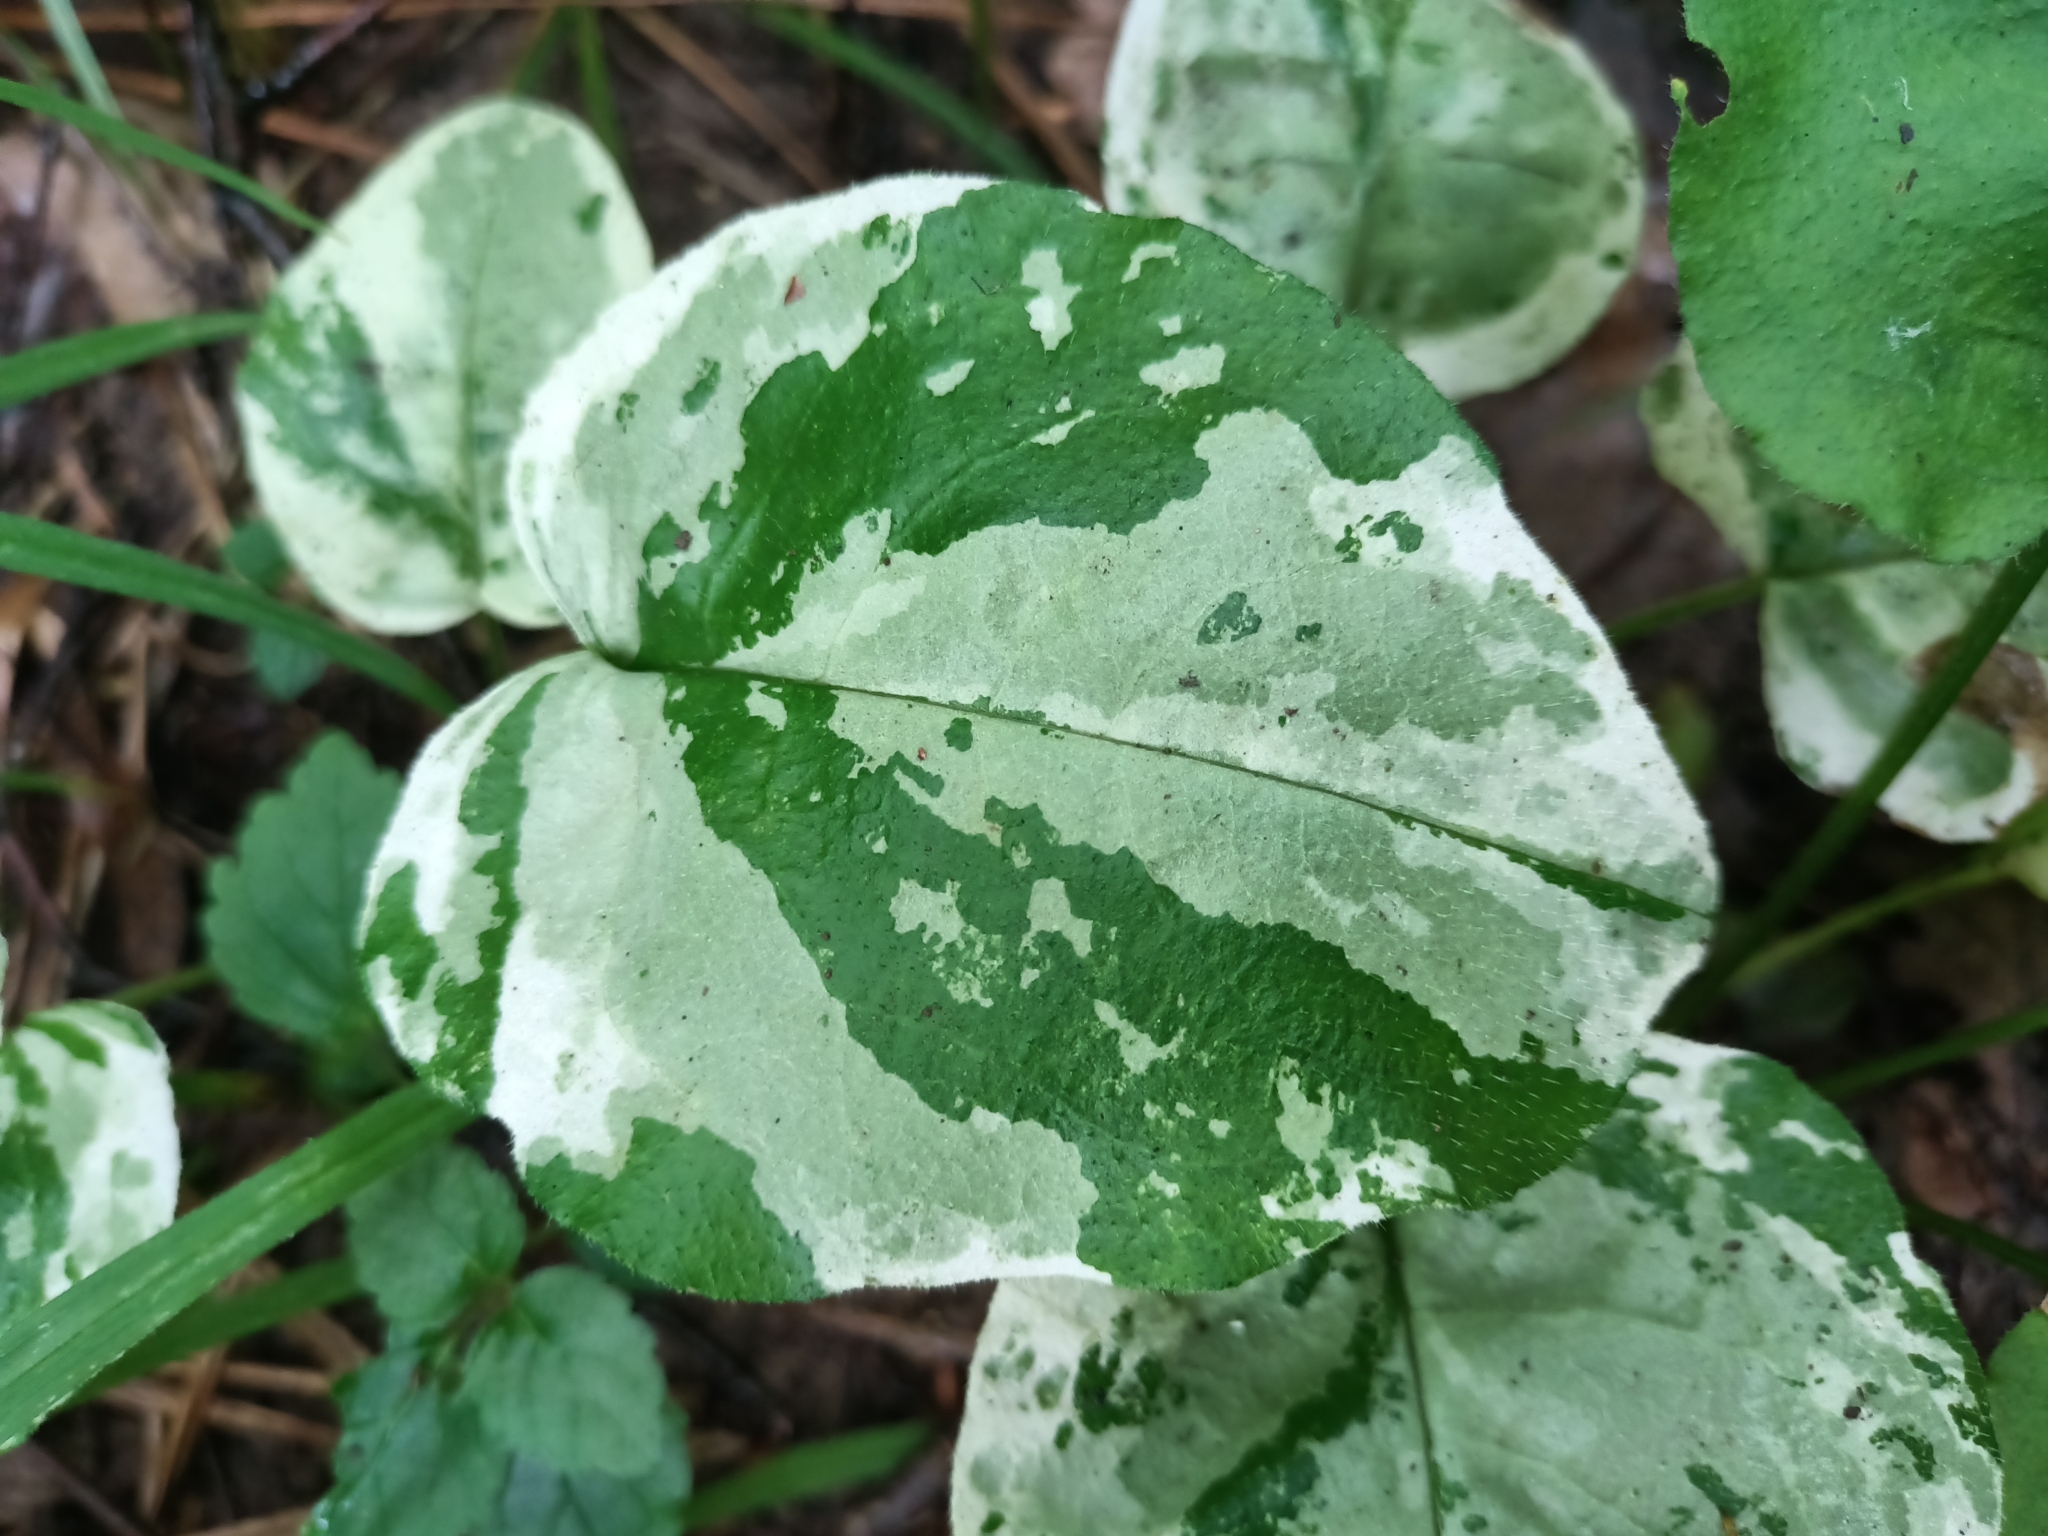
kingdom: Plantae
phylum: Tracheophyta
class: Magnoliopsida
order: Boraginales
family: Boraginaceae
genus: Pulmonaria
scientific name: Pulmonaria obscura
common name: Suffolk lungwort
